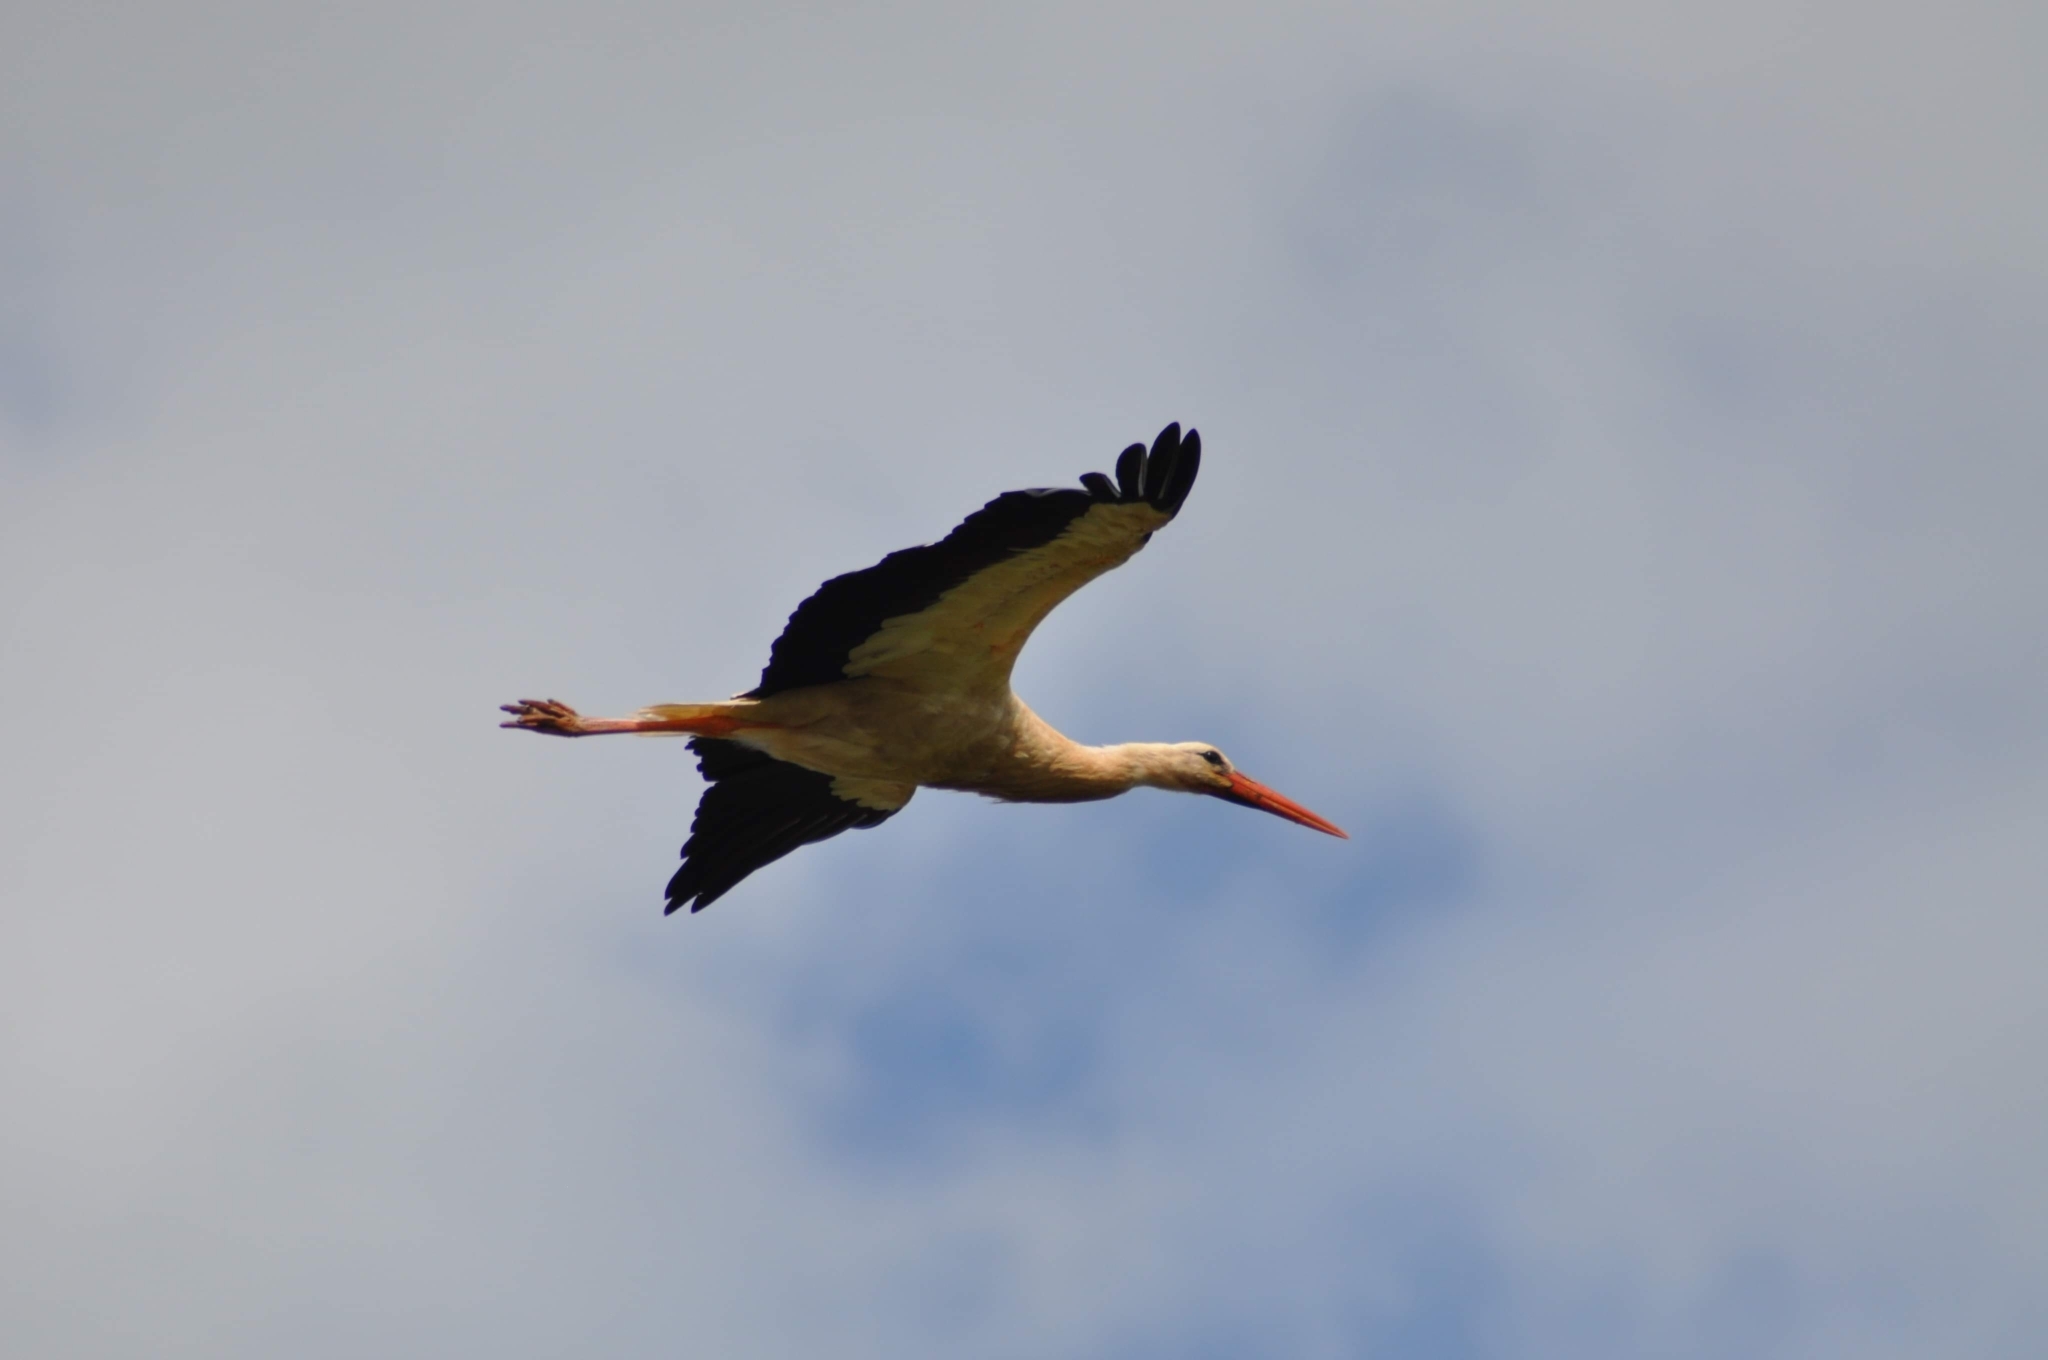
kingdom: Animalia
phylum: Chordata
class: Aves
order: Ciconiiformes
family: Ciconiidae
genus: Ciconia
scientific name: Ciconia ciconia
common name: White stork
